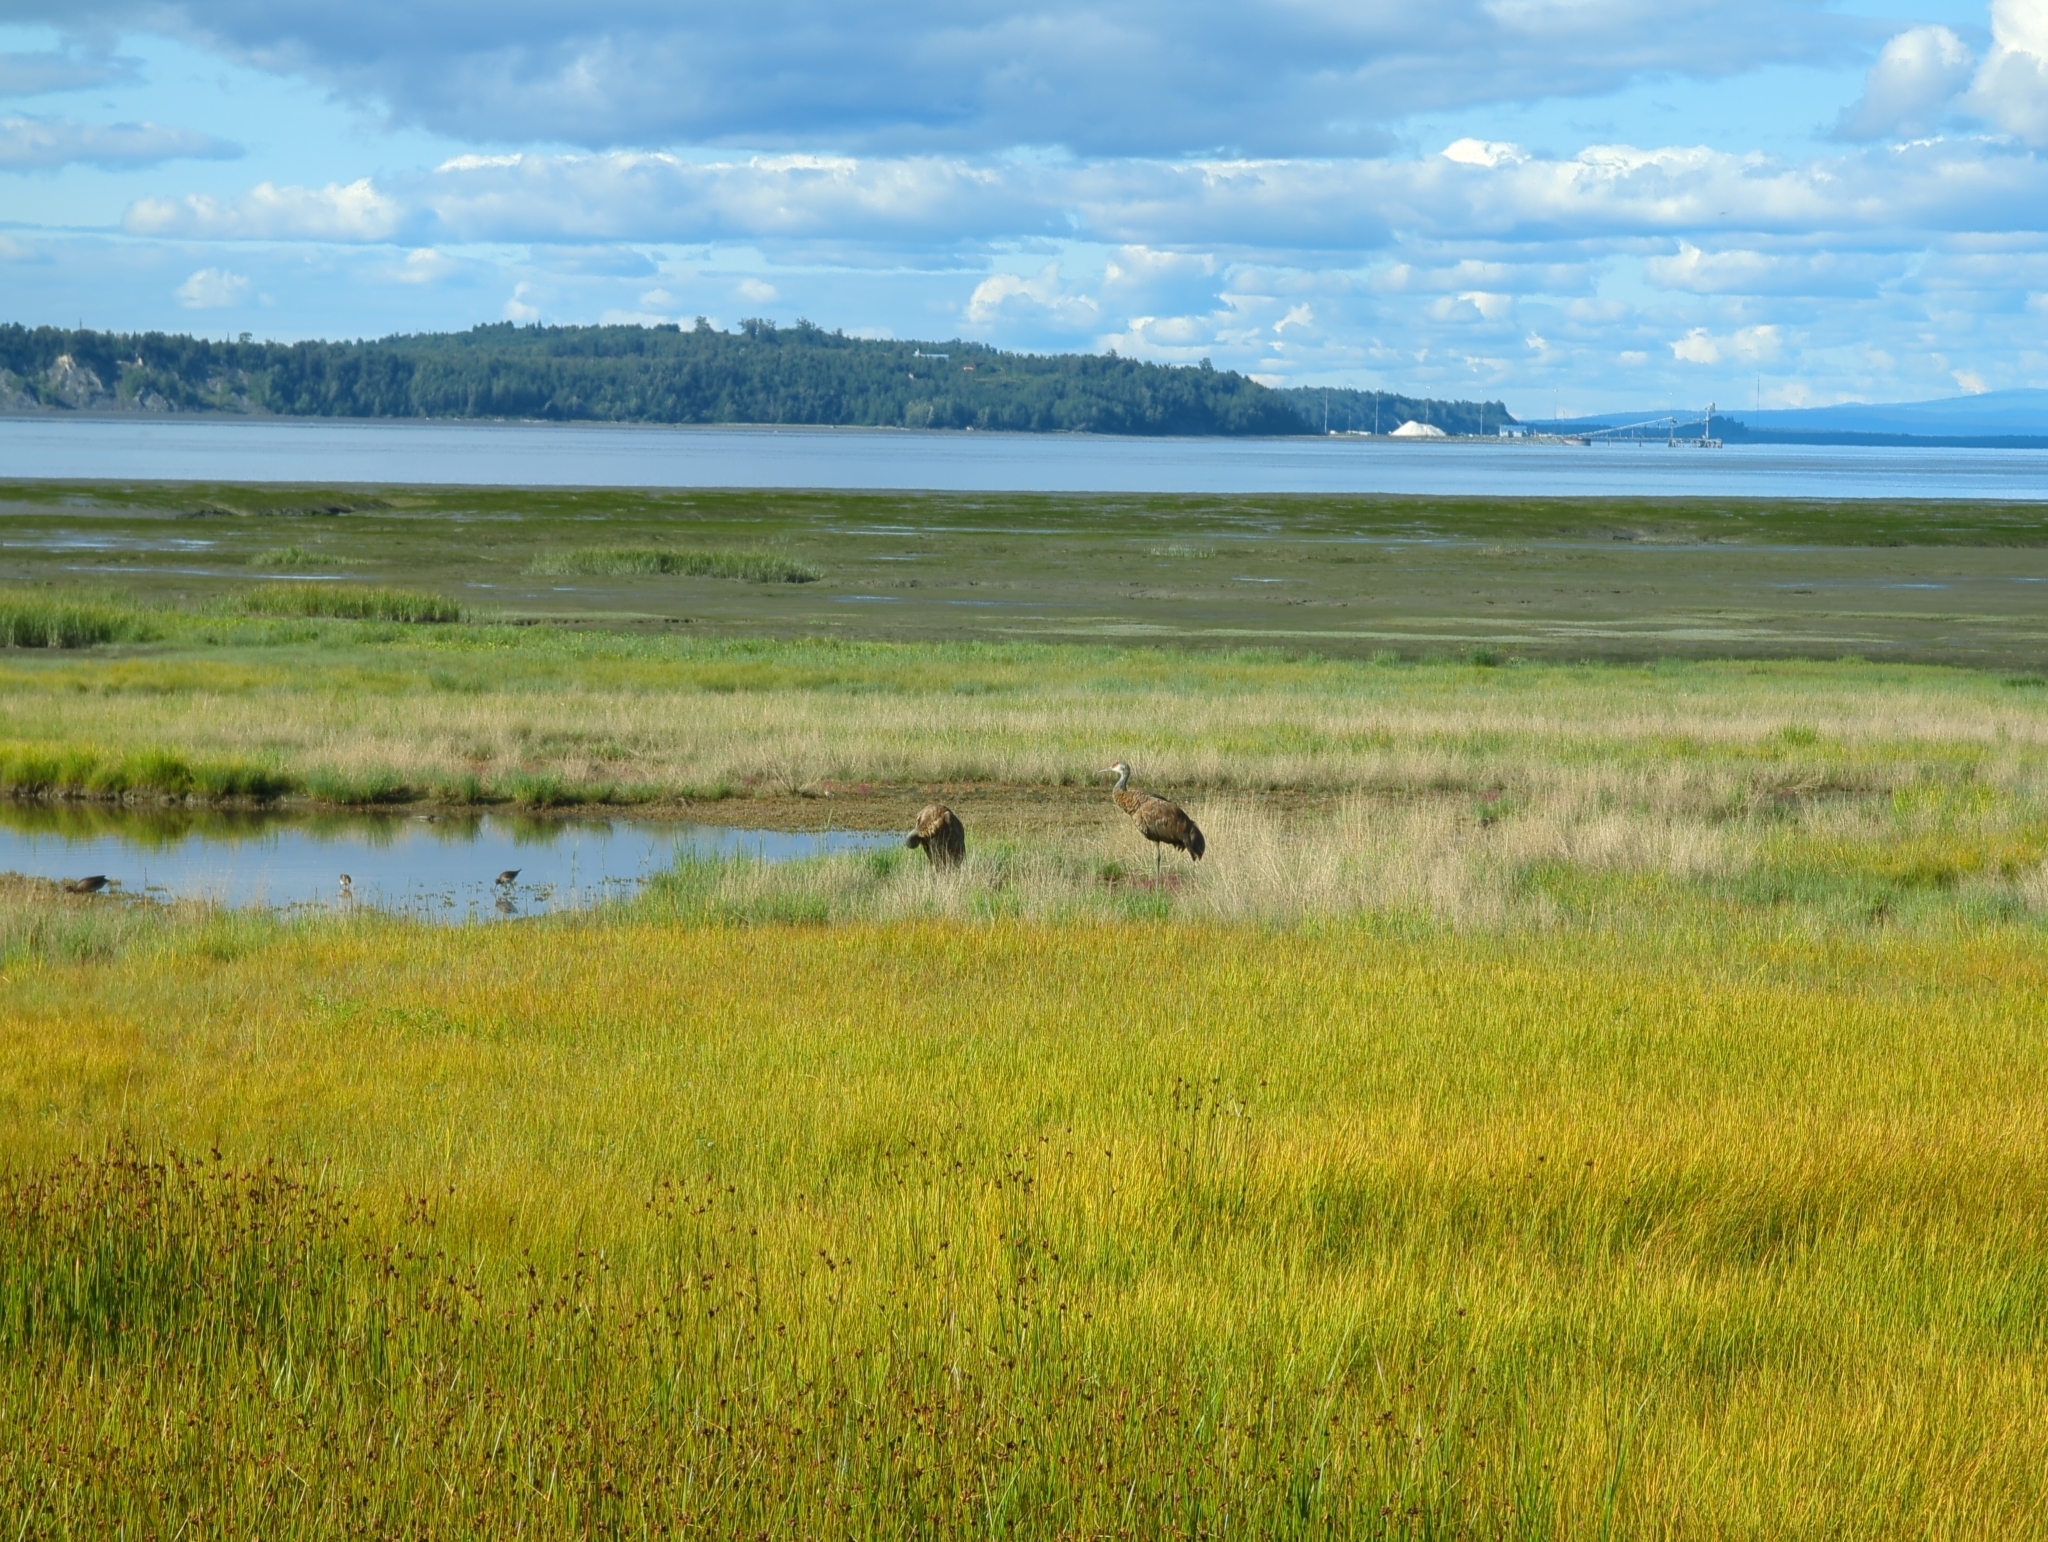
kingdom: Animalia
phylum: Chordata
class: Aves
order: Gruiformes
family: Gruidae
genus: Grus
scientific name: Grus canadensis
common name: Sandhill crane
